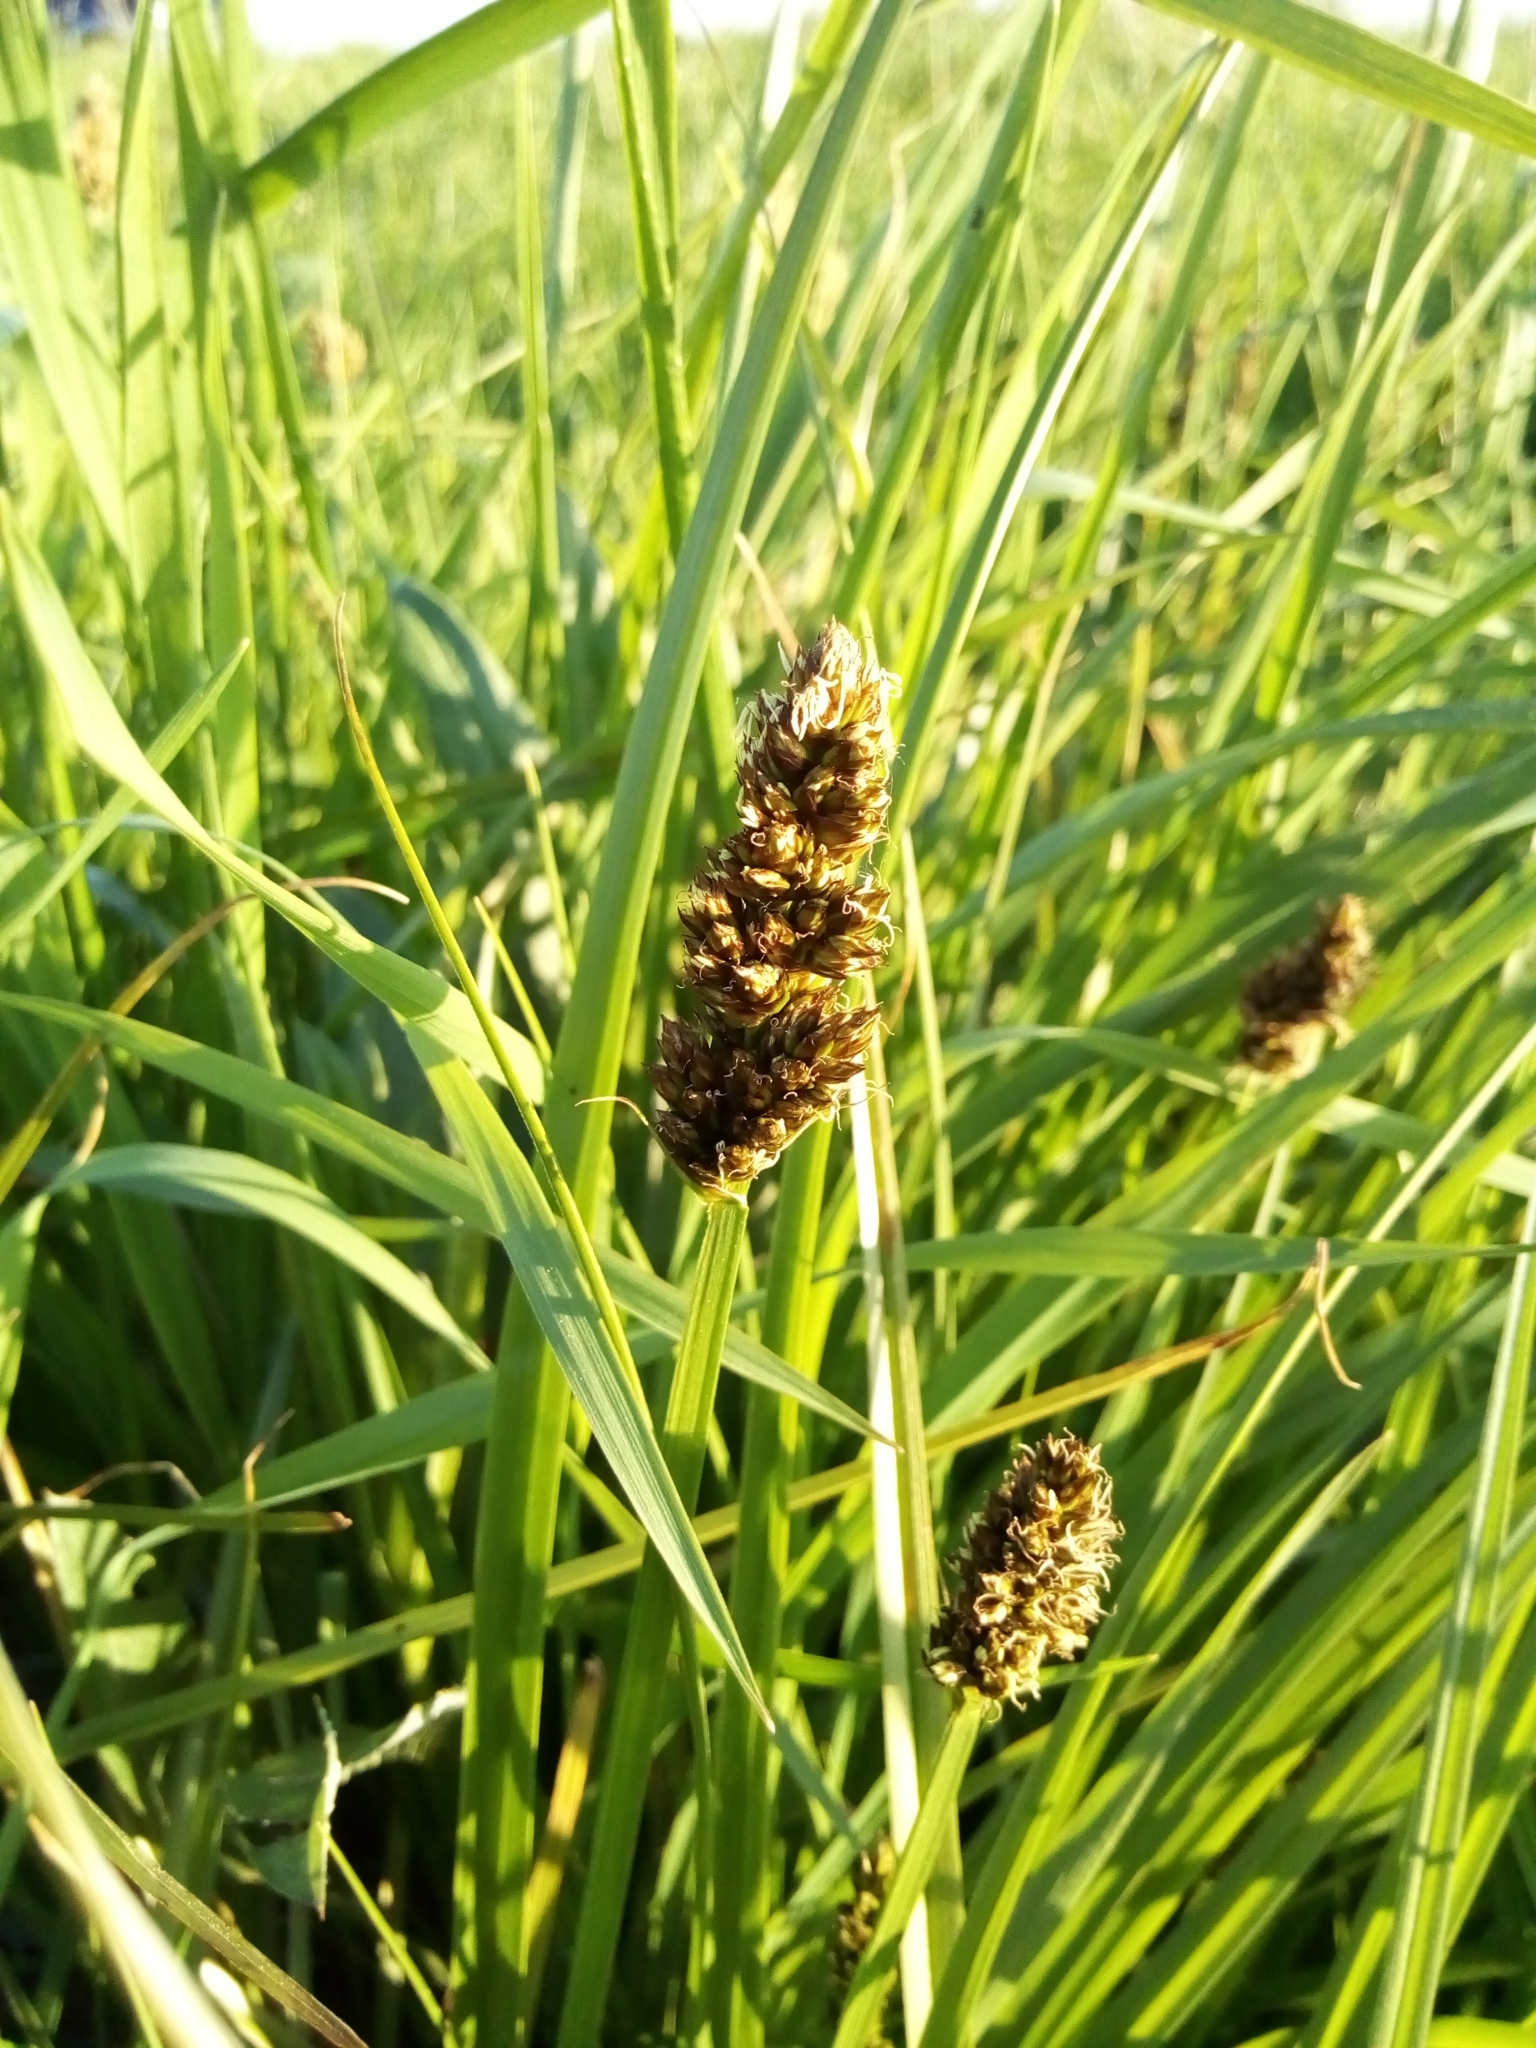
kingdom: Plantae
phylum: Tracheophyta
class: Liliopsida
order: Poales
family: Cyperaceae
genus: Carex
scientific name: Carex vulpina
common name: True fox-sedge
